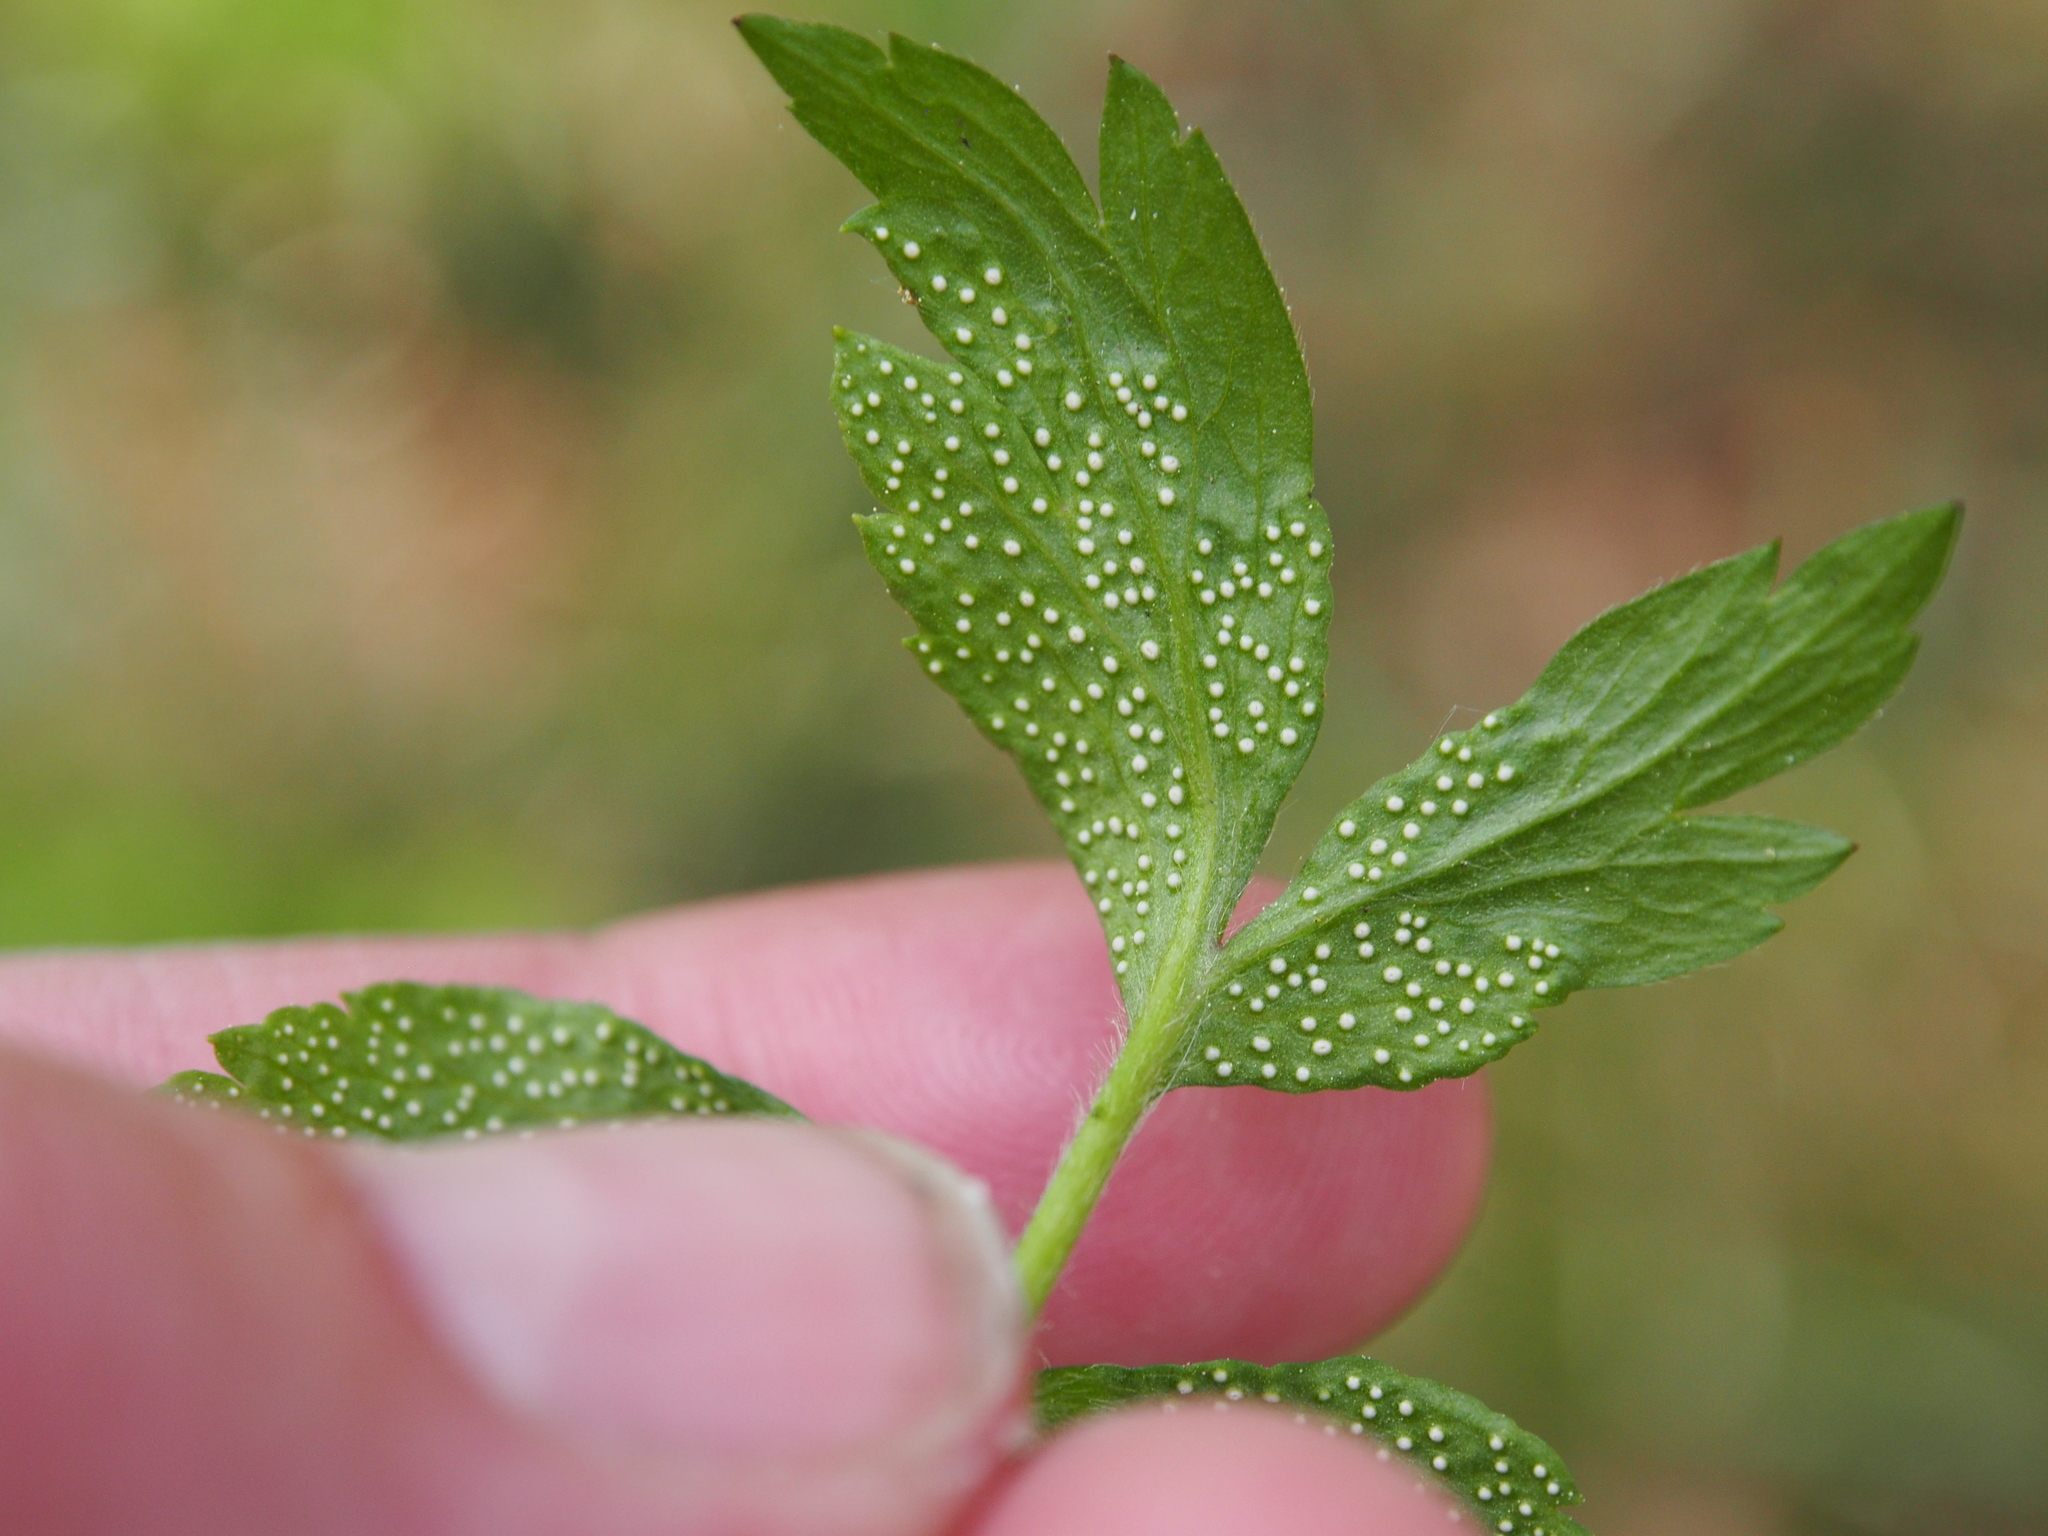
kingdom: Fungi
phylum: Basidiomycota
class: Pucciniomycetes
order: Pucciniales
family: Ochropsoraceae
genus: Ochropsora
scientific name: Ochropsora ariae
